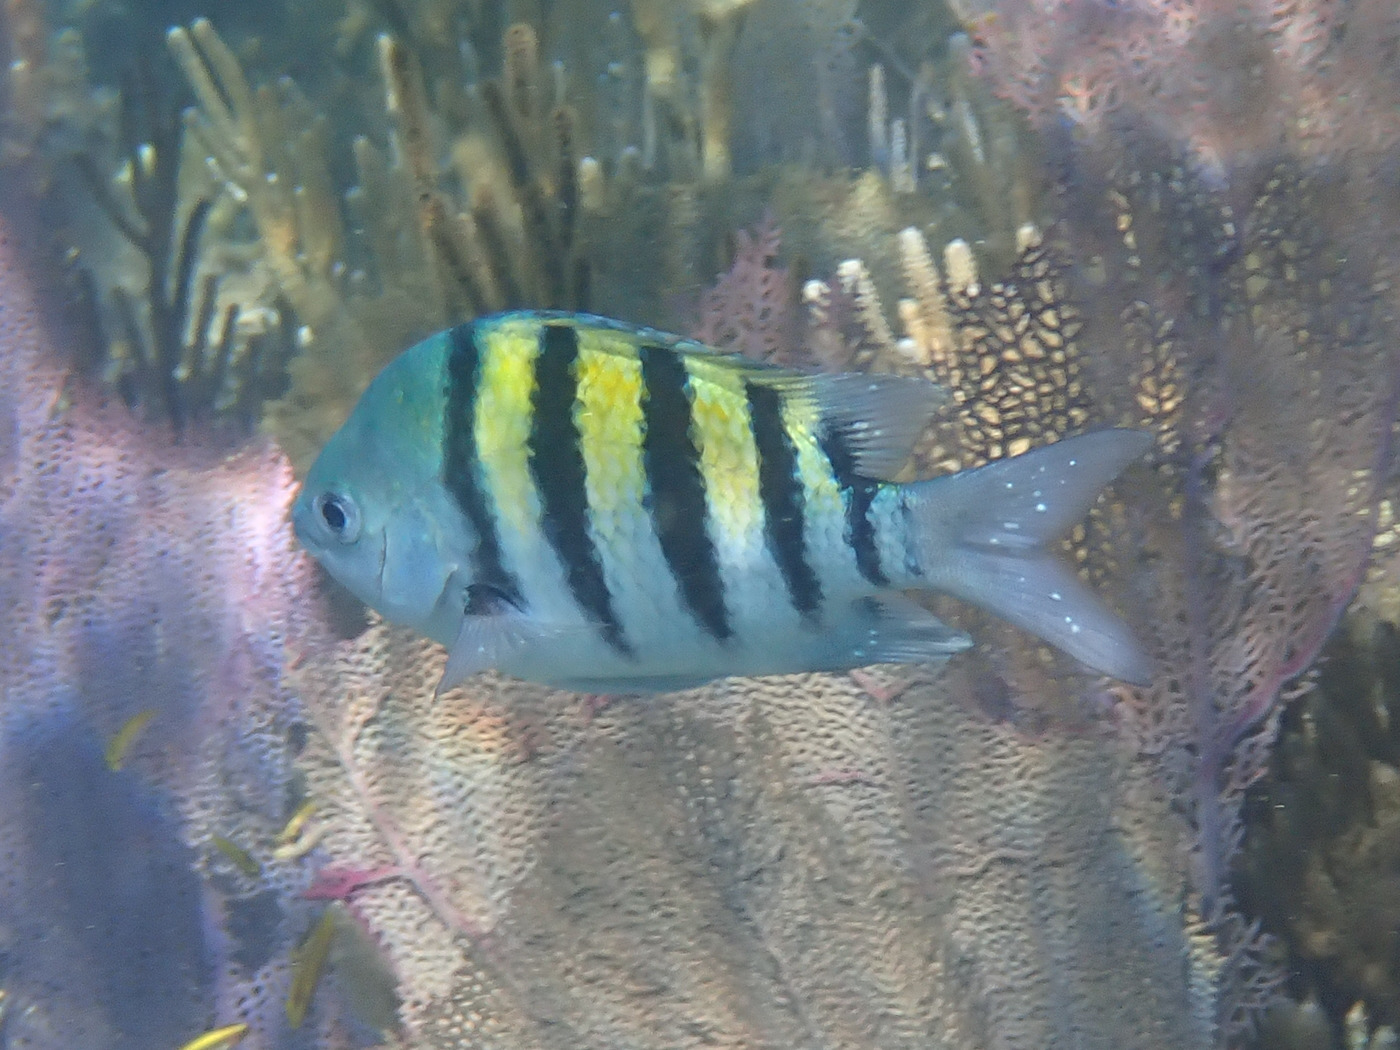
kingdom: Animalia
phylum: Chordata
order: Perciformes
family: Pomacentridae
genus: Abudefduf
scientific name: Abudefduf saxatilis
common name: Sergeant major
